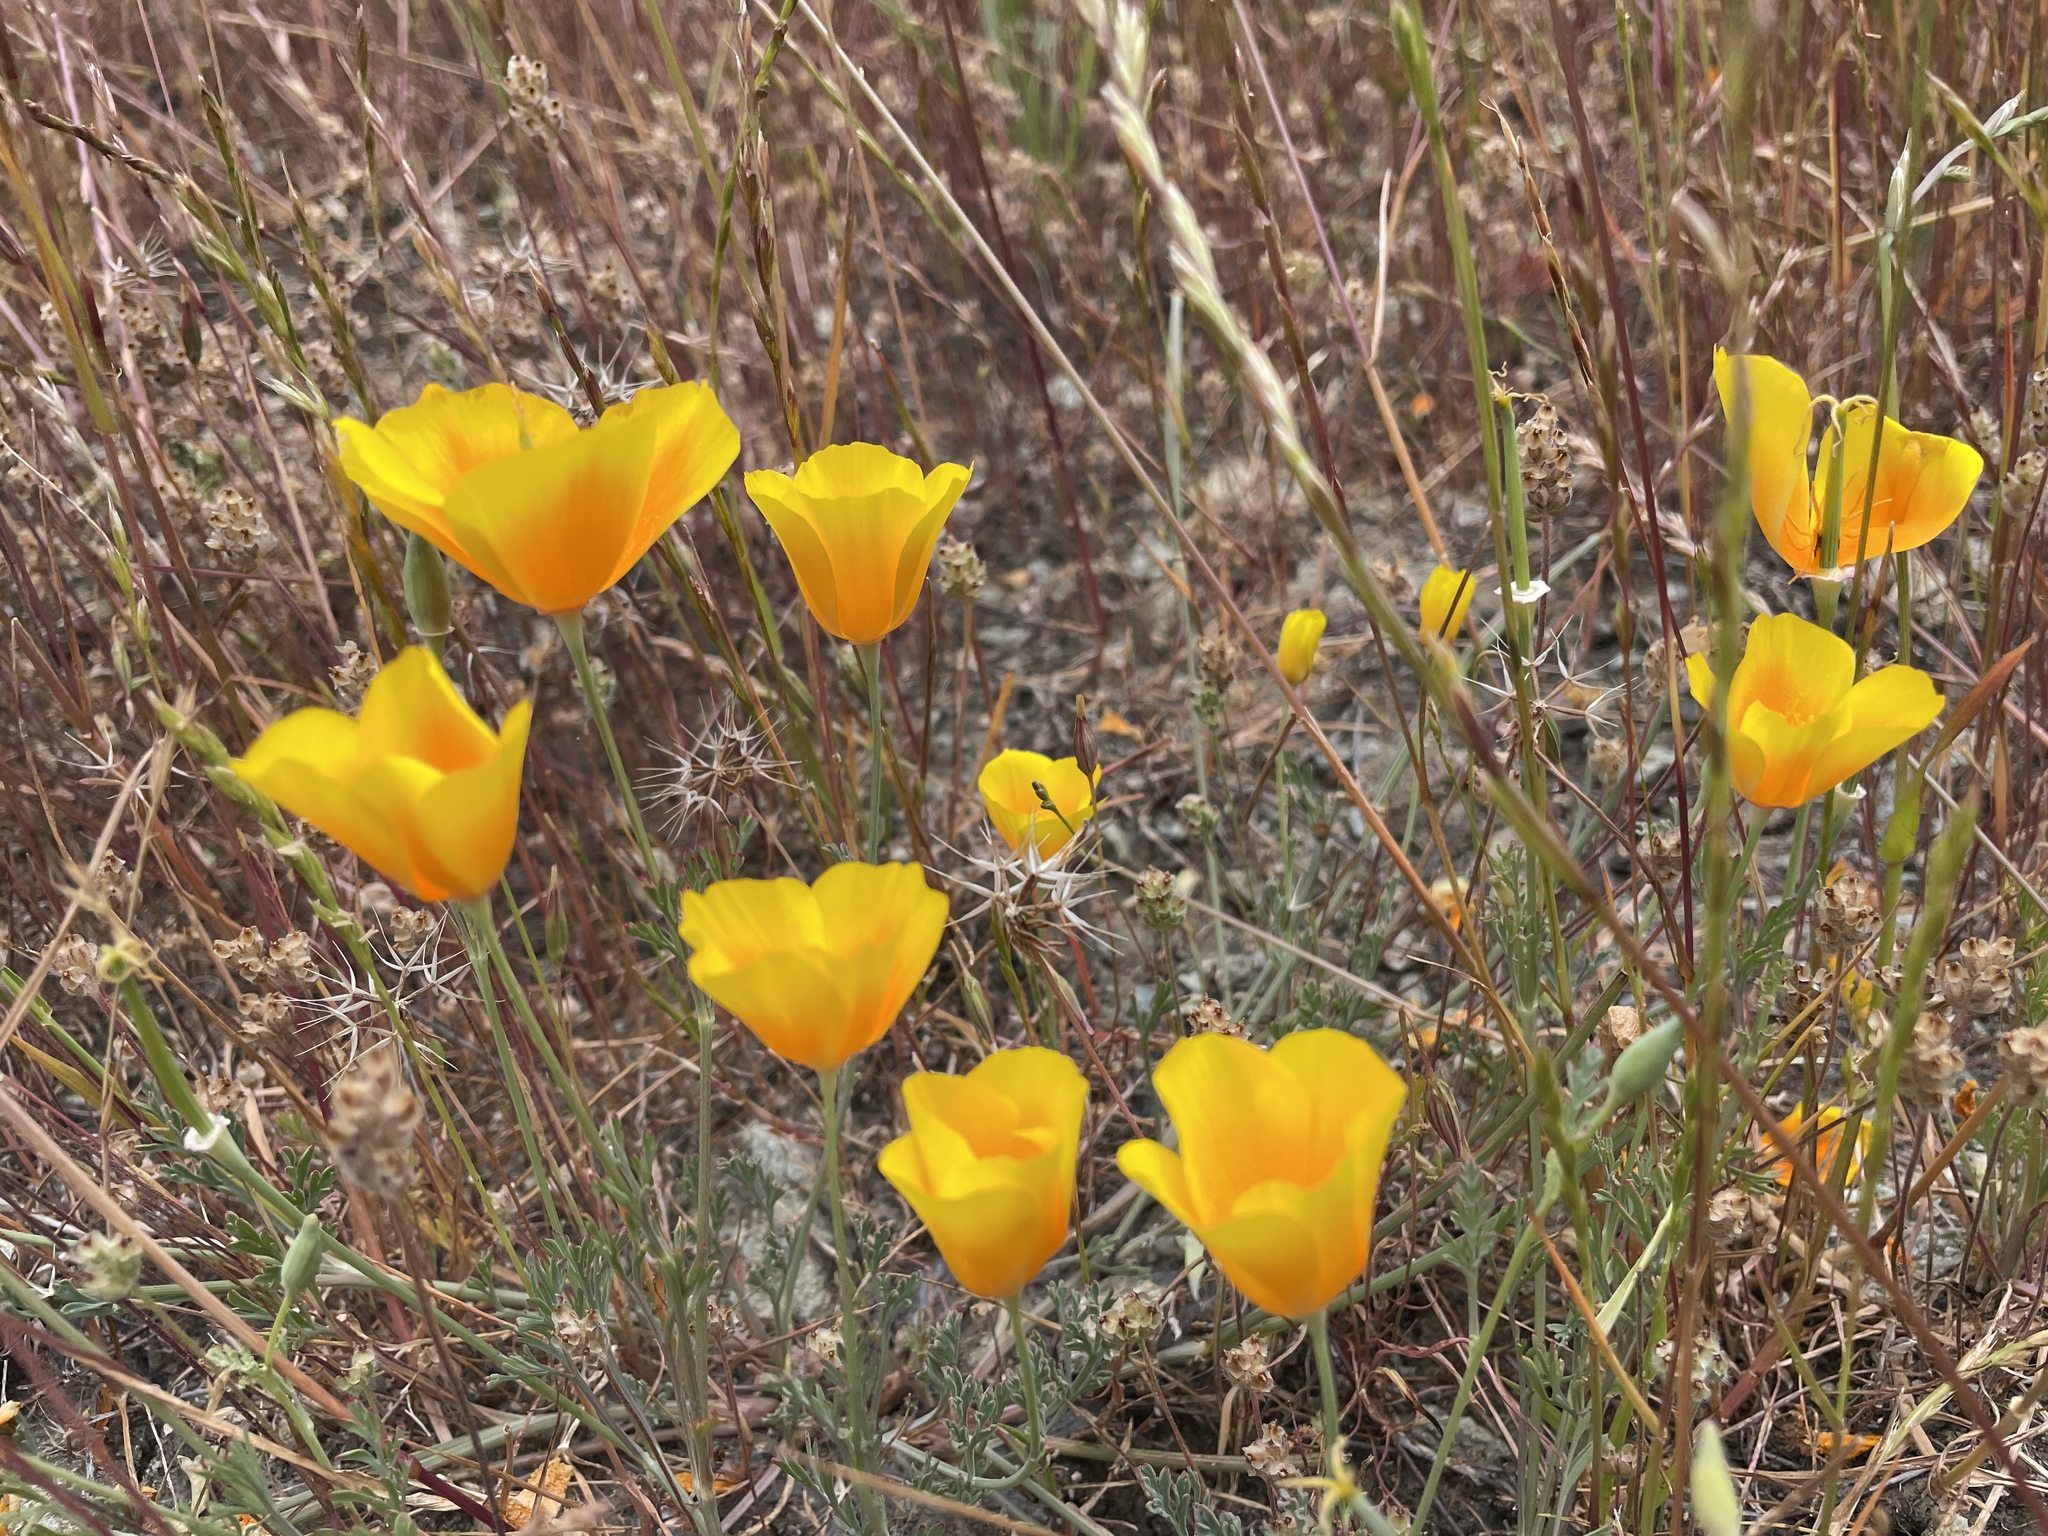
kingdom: Plantae
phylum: Tracheophyta
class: Magnoliopsida
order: Ranunculales
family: Papaveraceae
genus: Eschscholzia
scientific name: Eschscholzia californica
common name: California poppy
